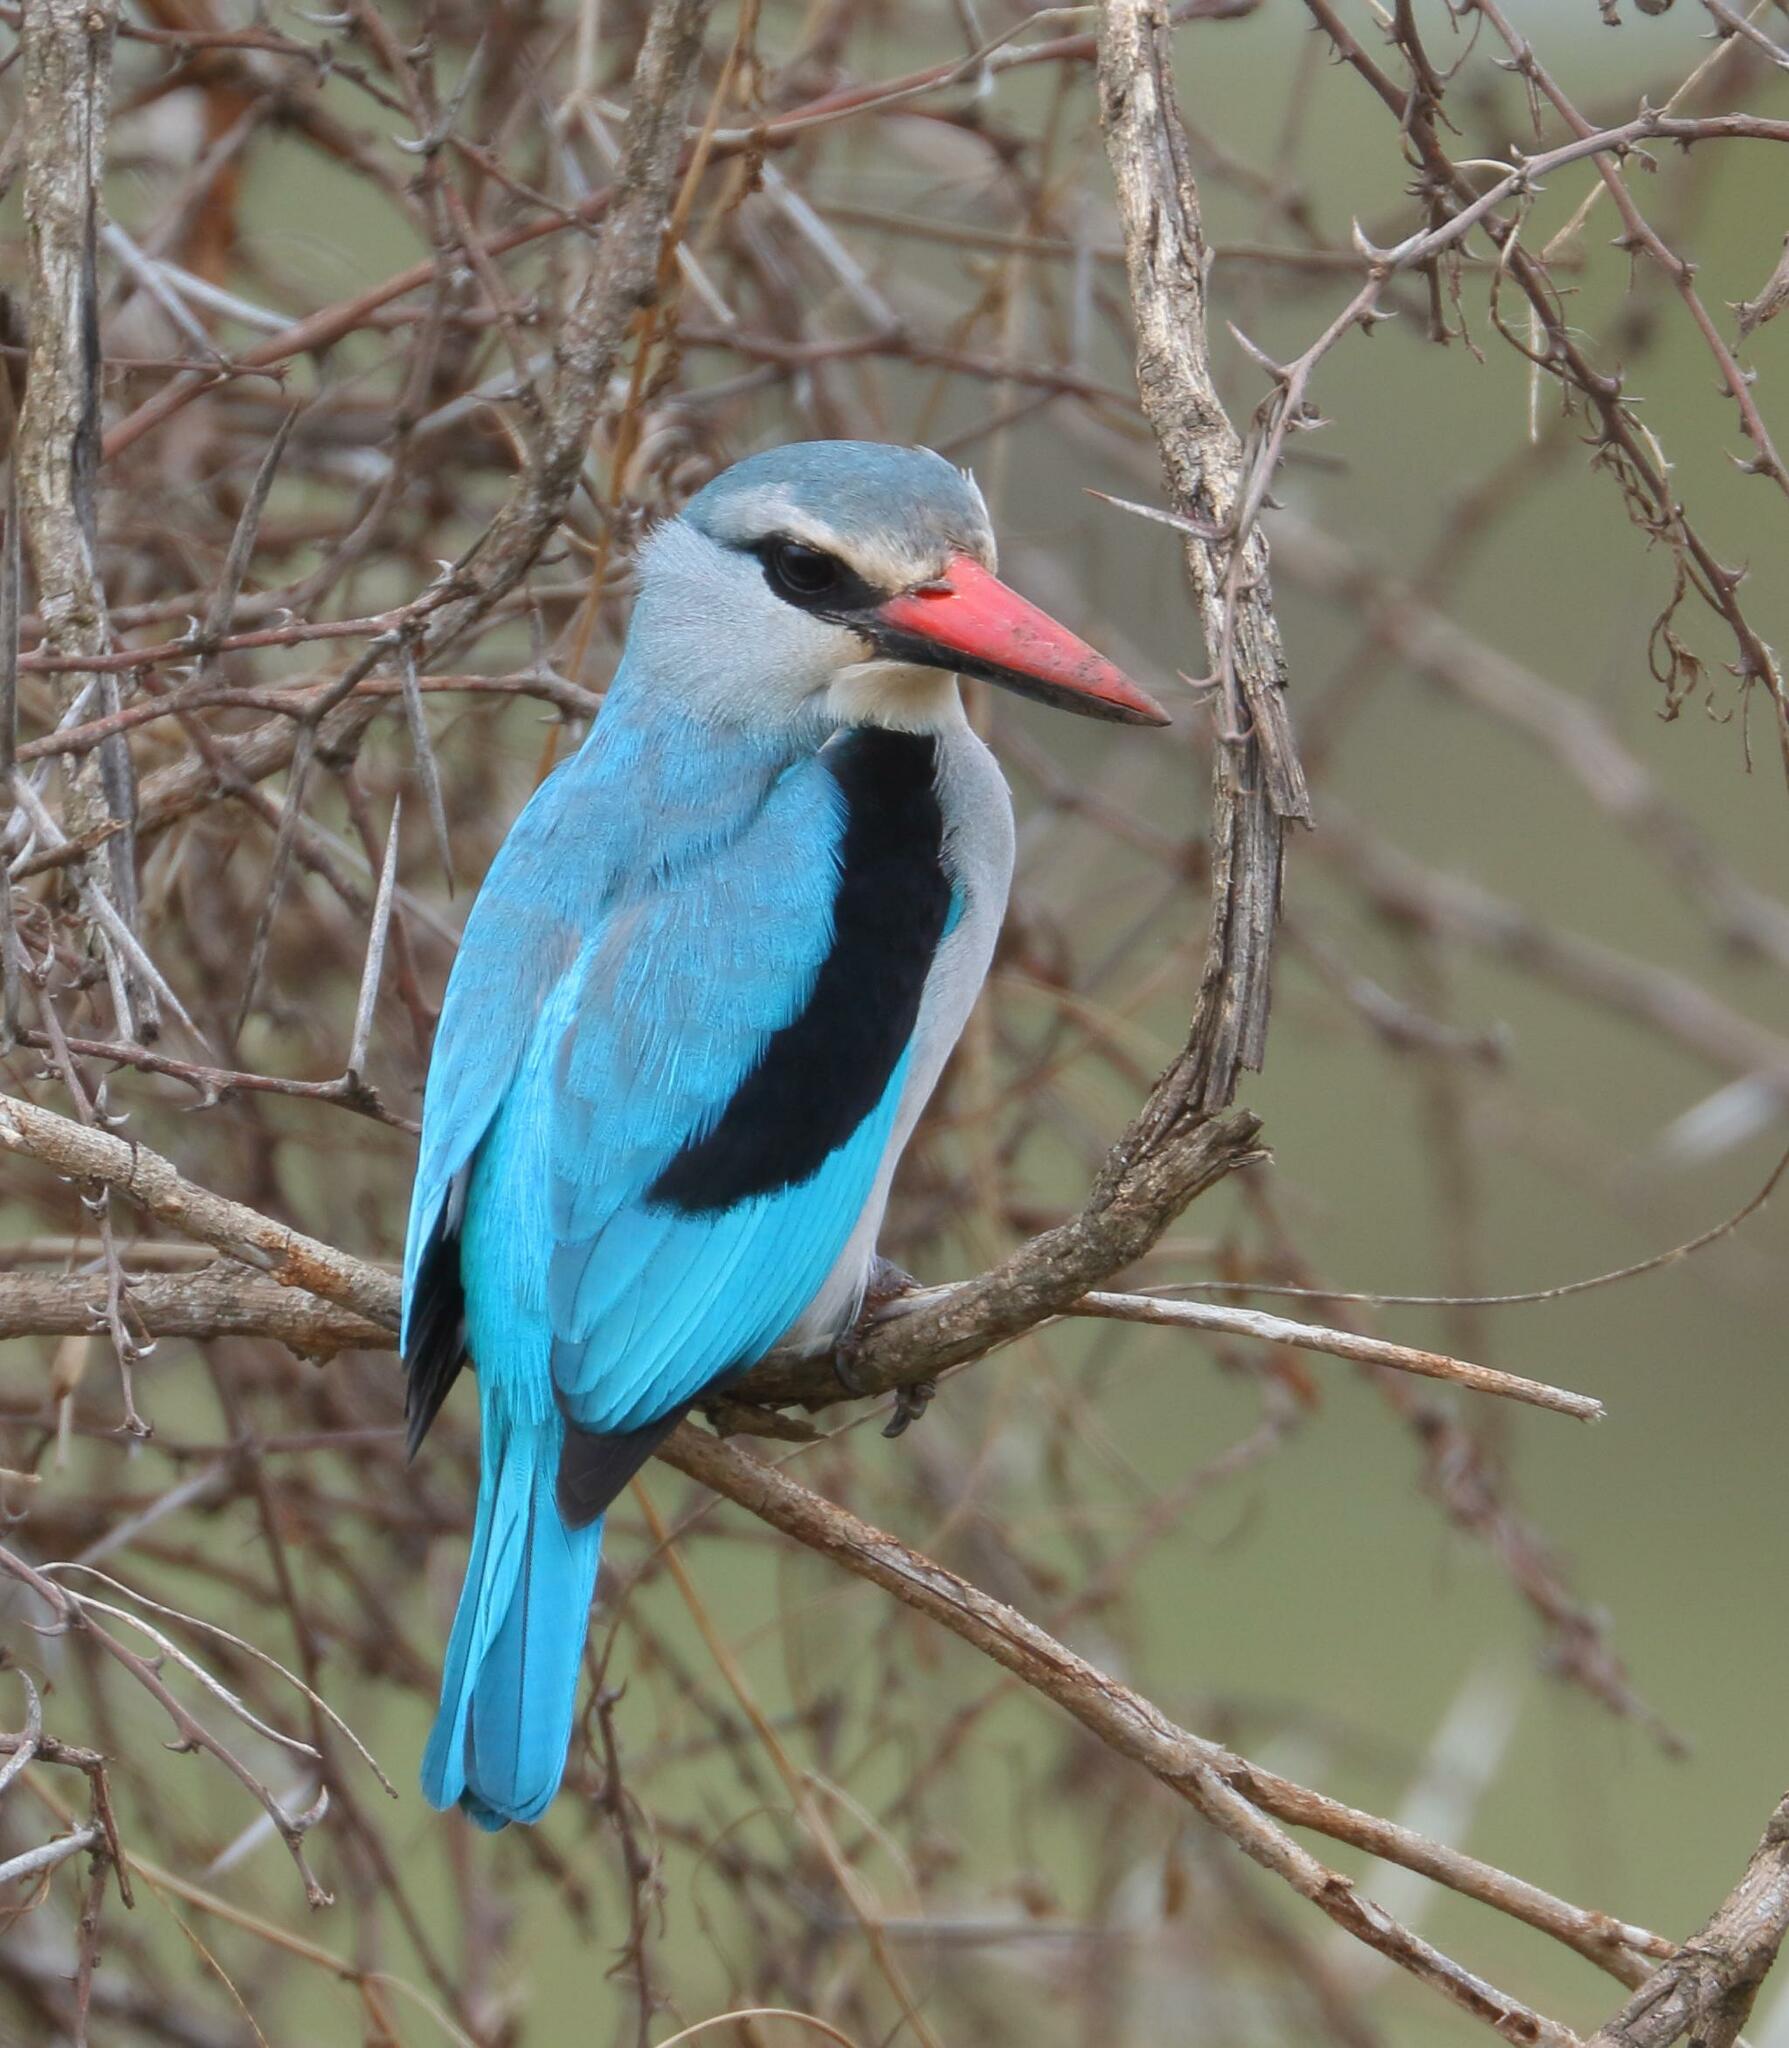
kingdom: Animalia
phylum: Chordata
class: Aves
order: Coraciiformes
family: Alcedinidae
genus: Halcyon
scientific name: Halcyon senegalensis
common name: Woodland kingfisher
